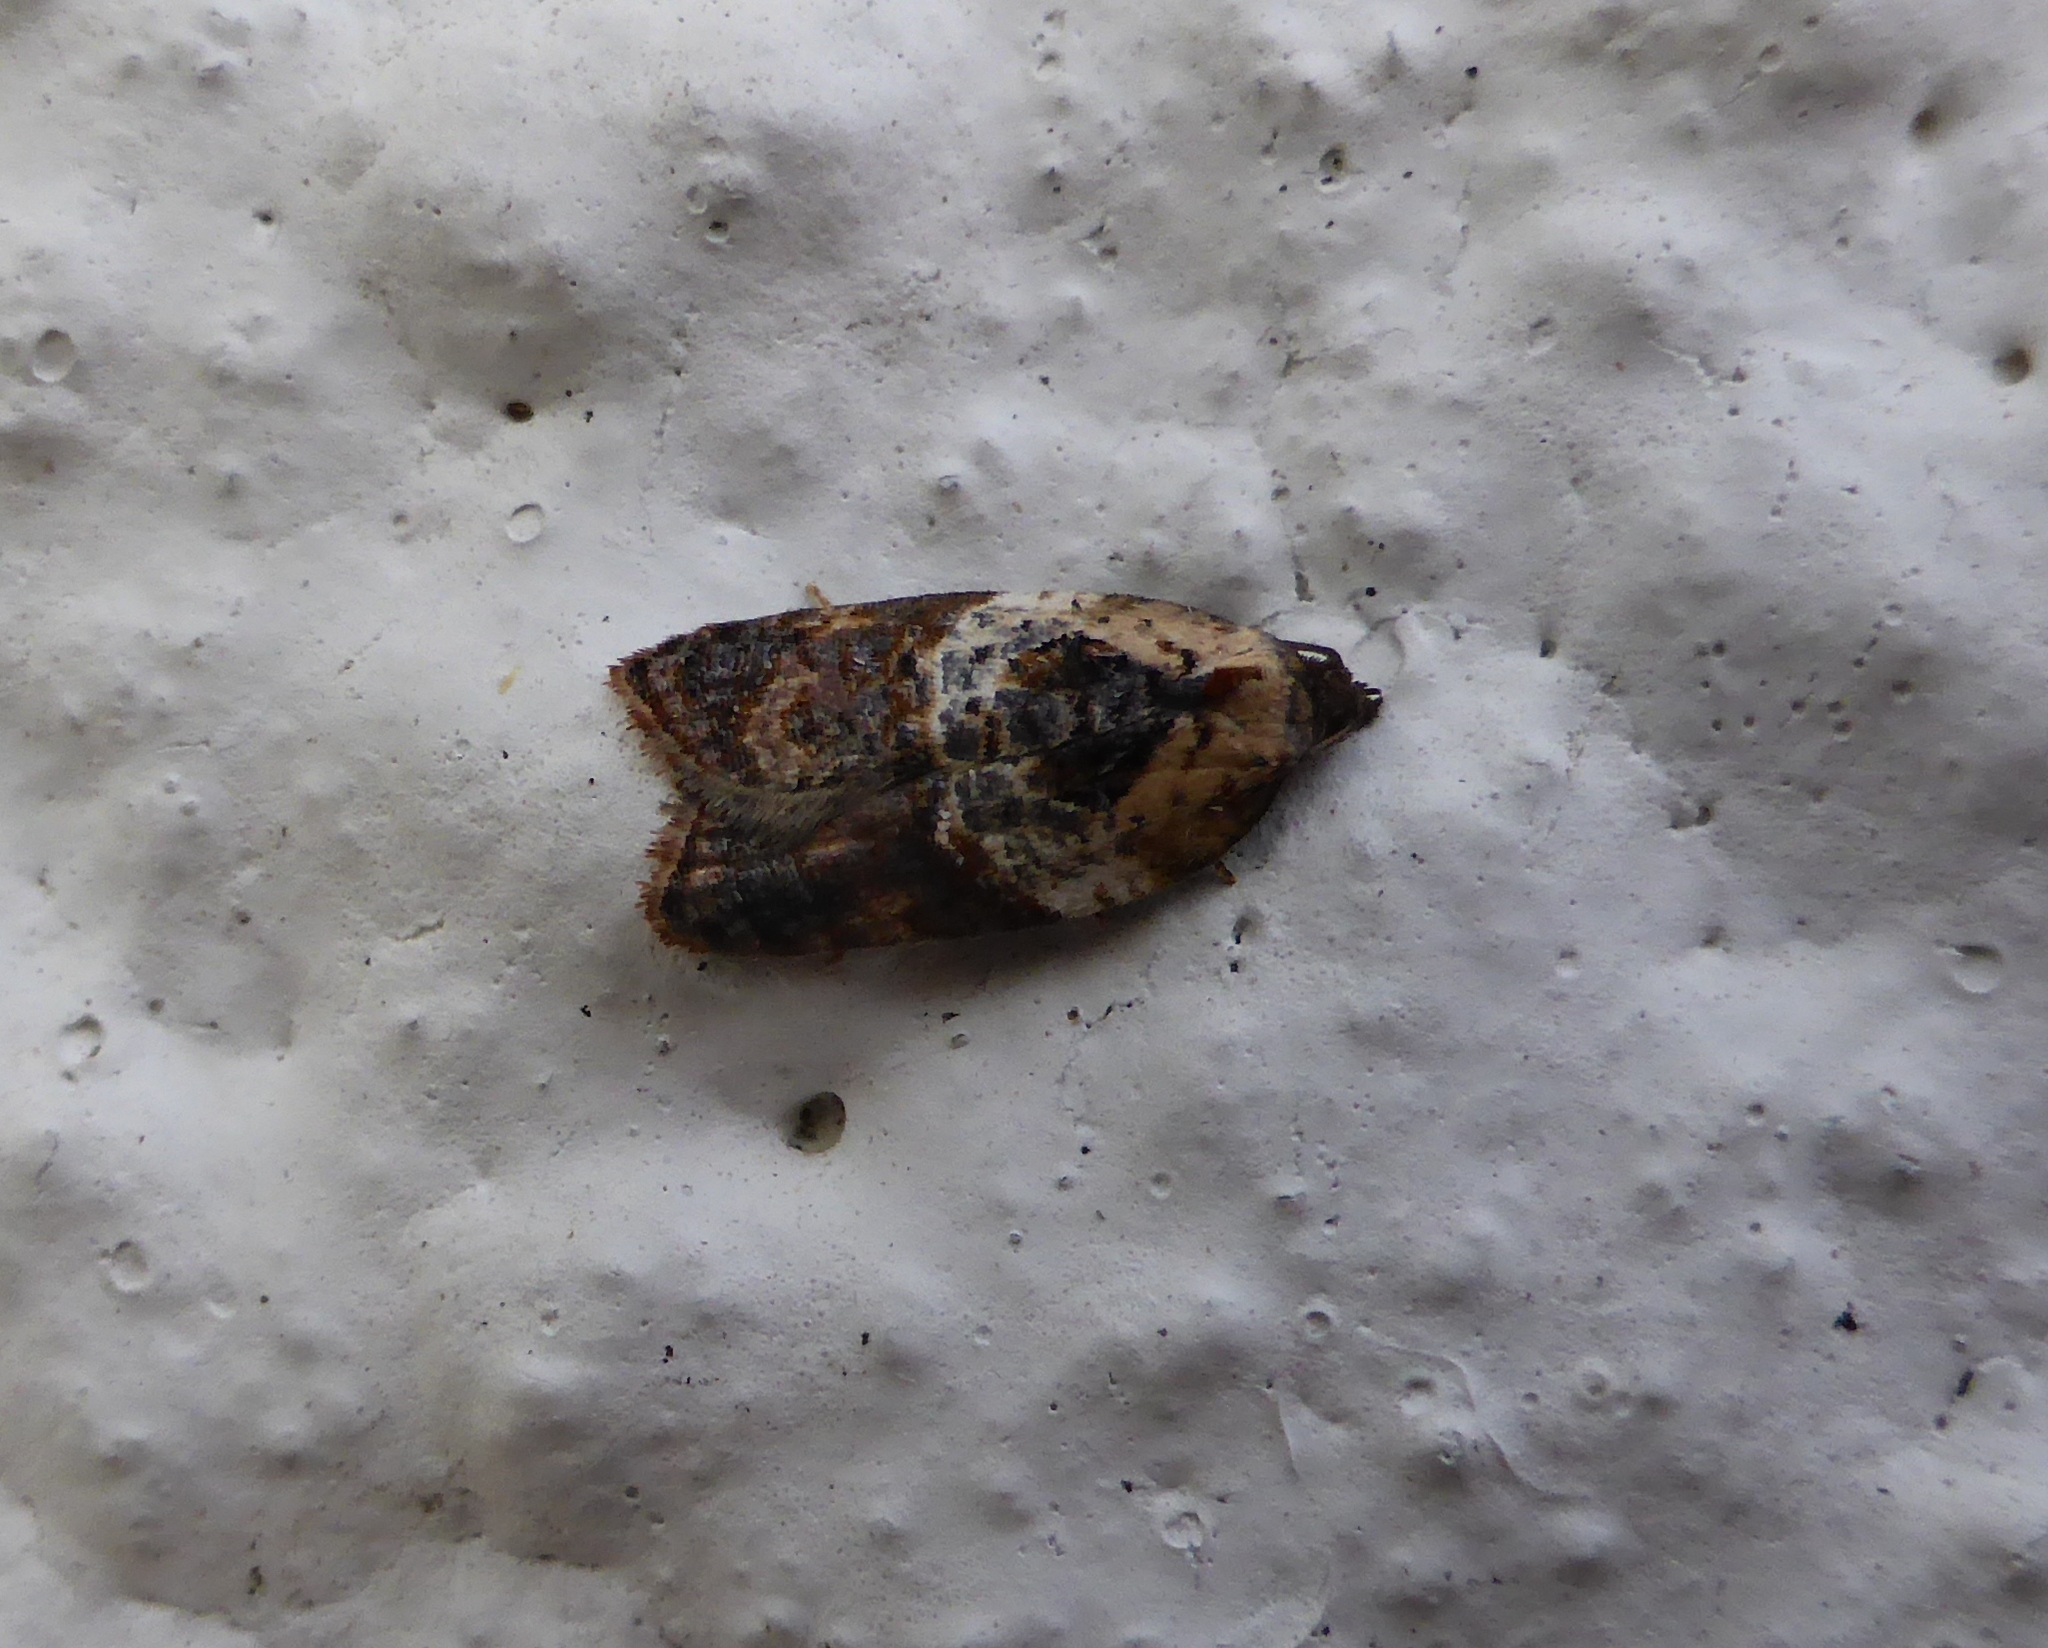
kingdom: Animalia
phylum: Arthropoda
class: Insecta
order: Lepidoptera
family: Tortricidae
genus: Acleris
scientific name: Acleris variegana
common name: Garden rose tortrix
